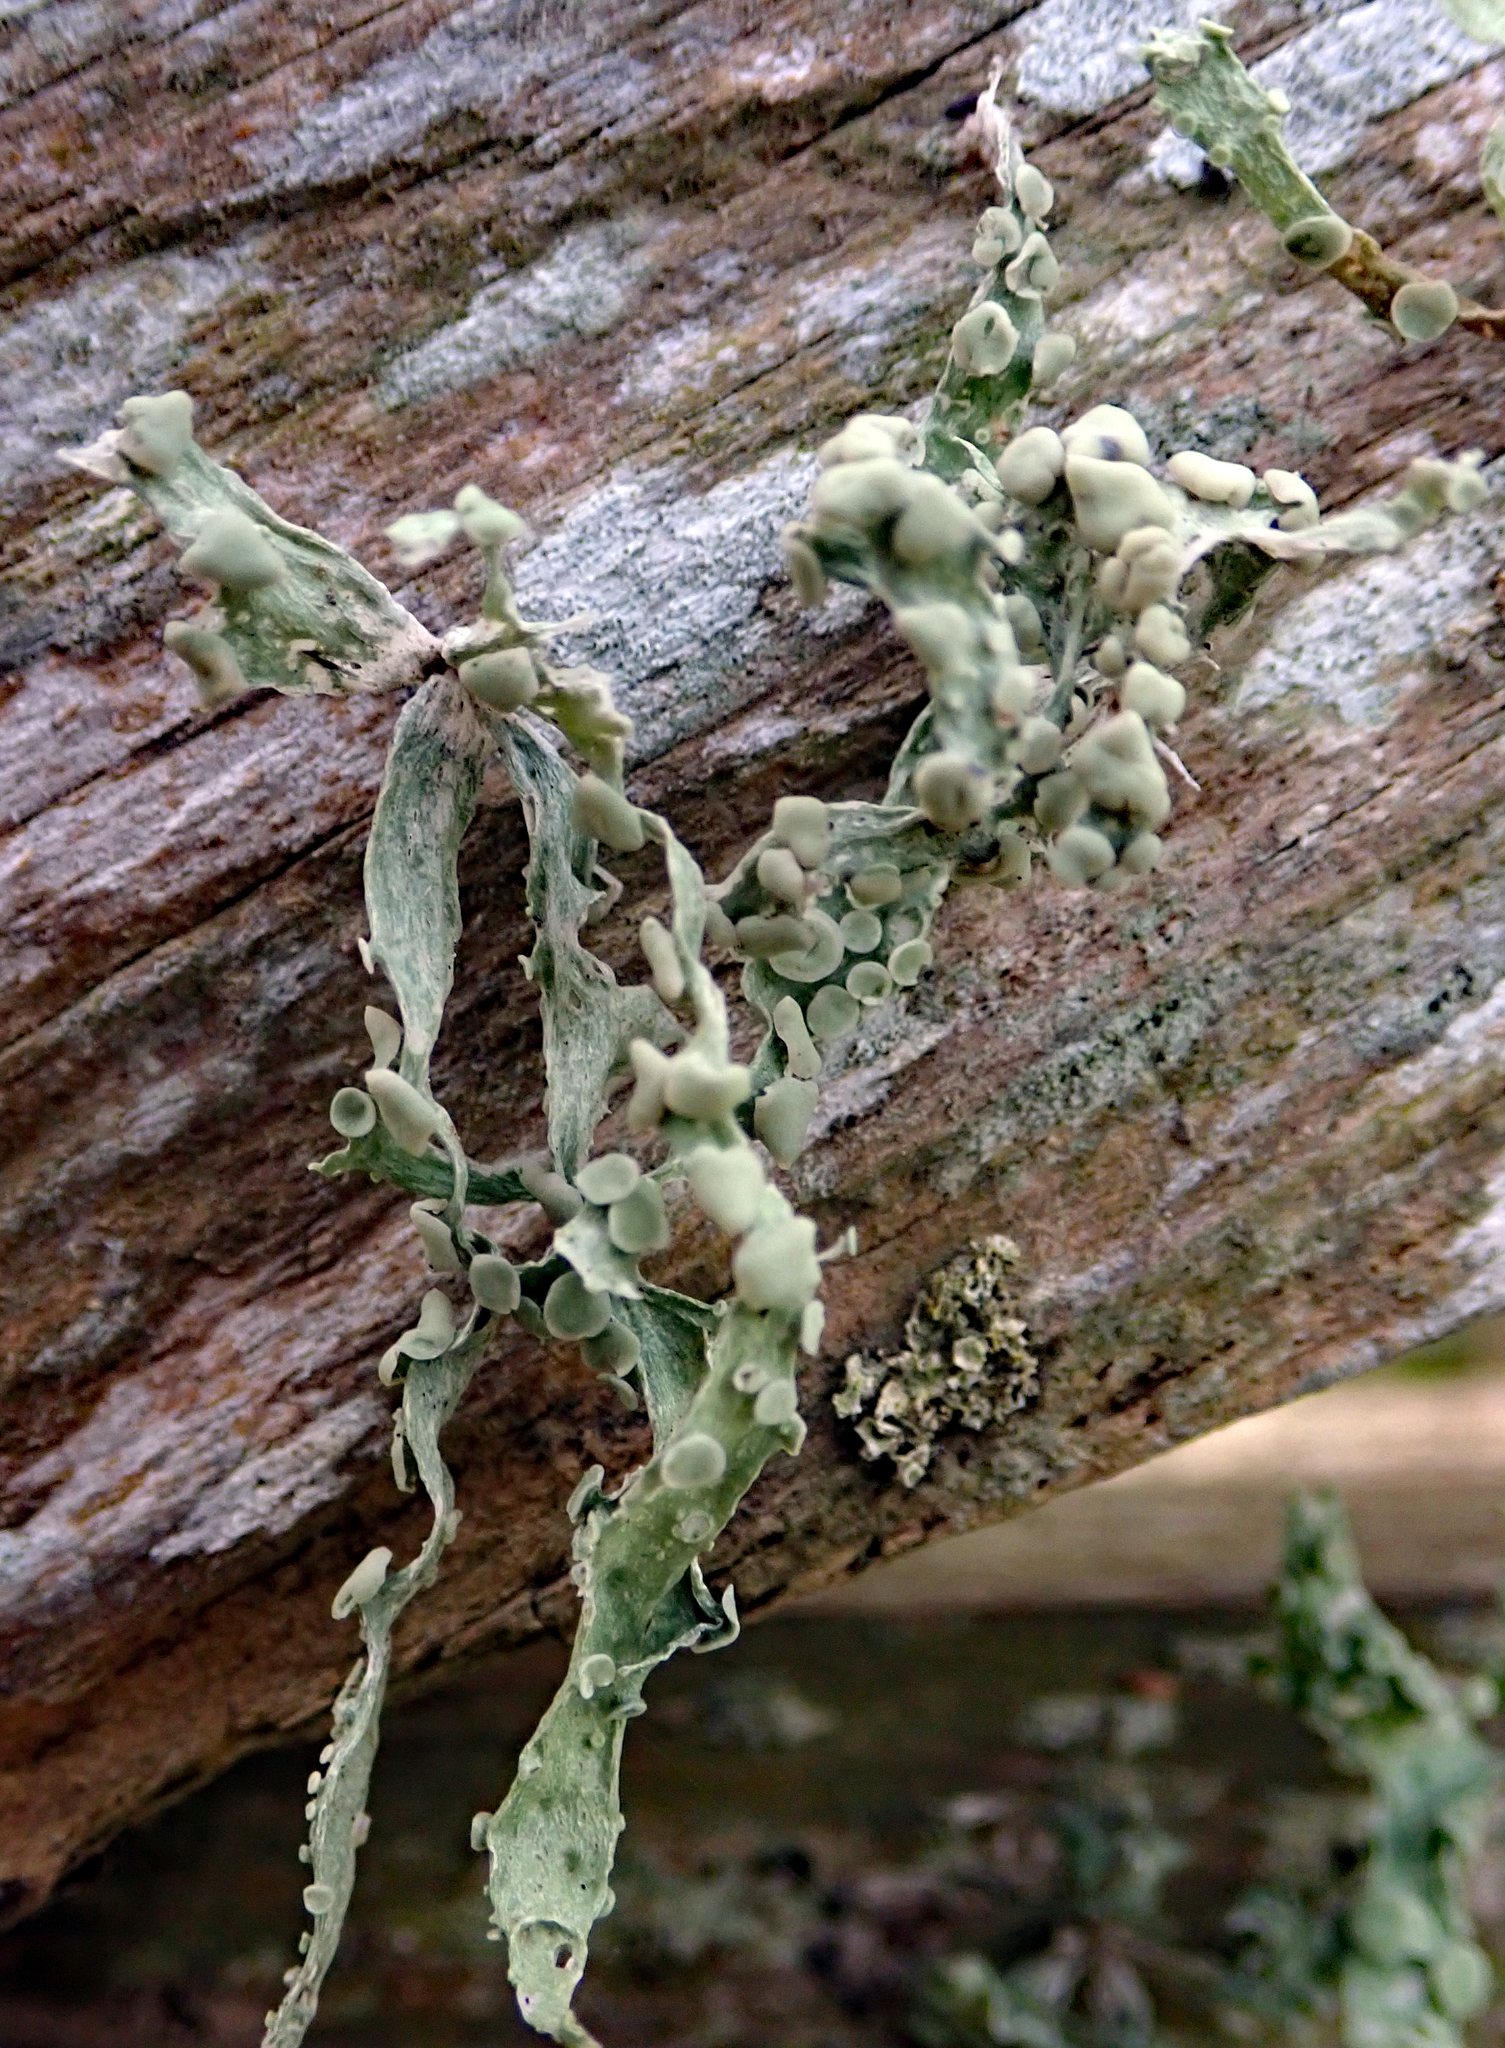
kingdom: Fungi
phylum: Ascomycota
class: Lecanoromycetes
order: Lecanorales
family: Ramalinaceae
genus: Ramalina
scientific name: Ramalina celastri
